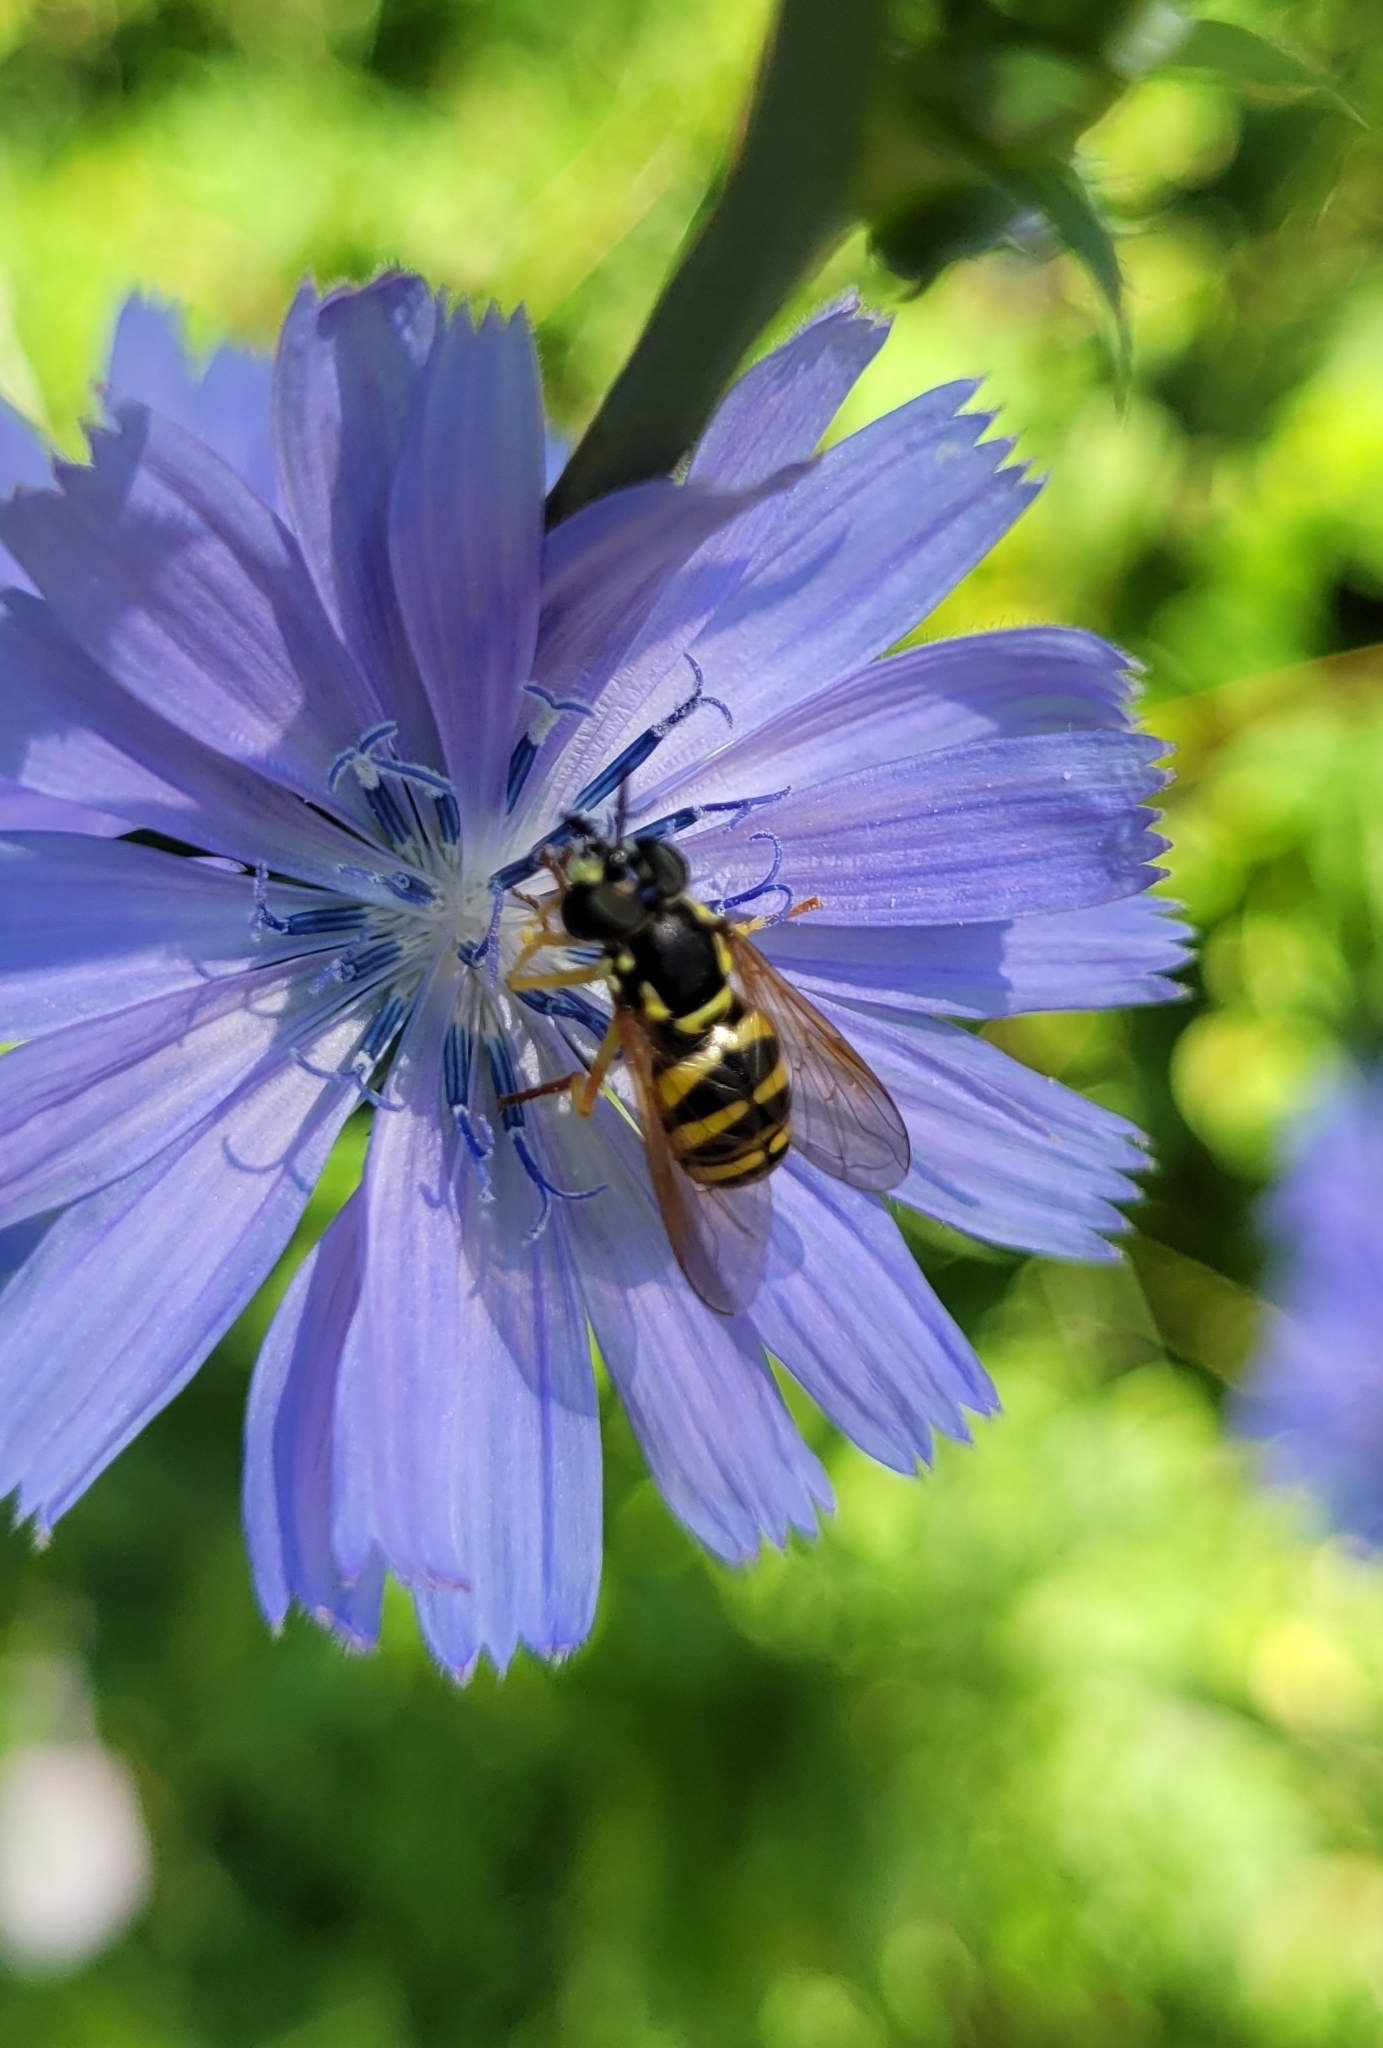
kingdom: Animalia
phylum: Arthropoda
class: Insecta
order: Diptera
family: Syrphidae
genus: Chrysotoxum
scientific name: Chrysotoxum verralli
